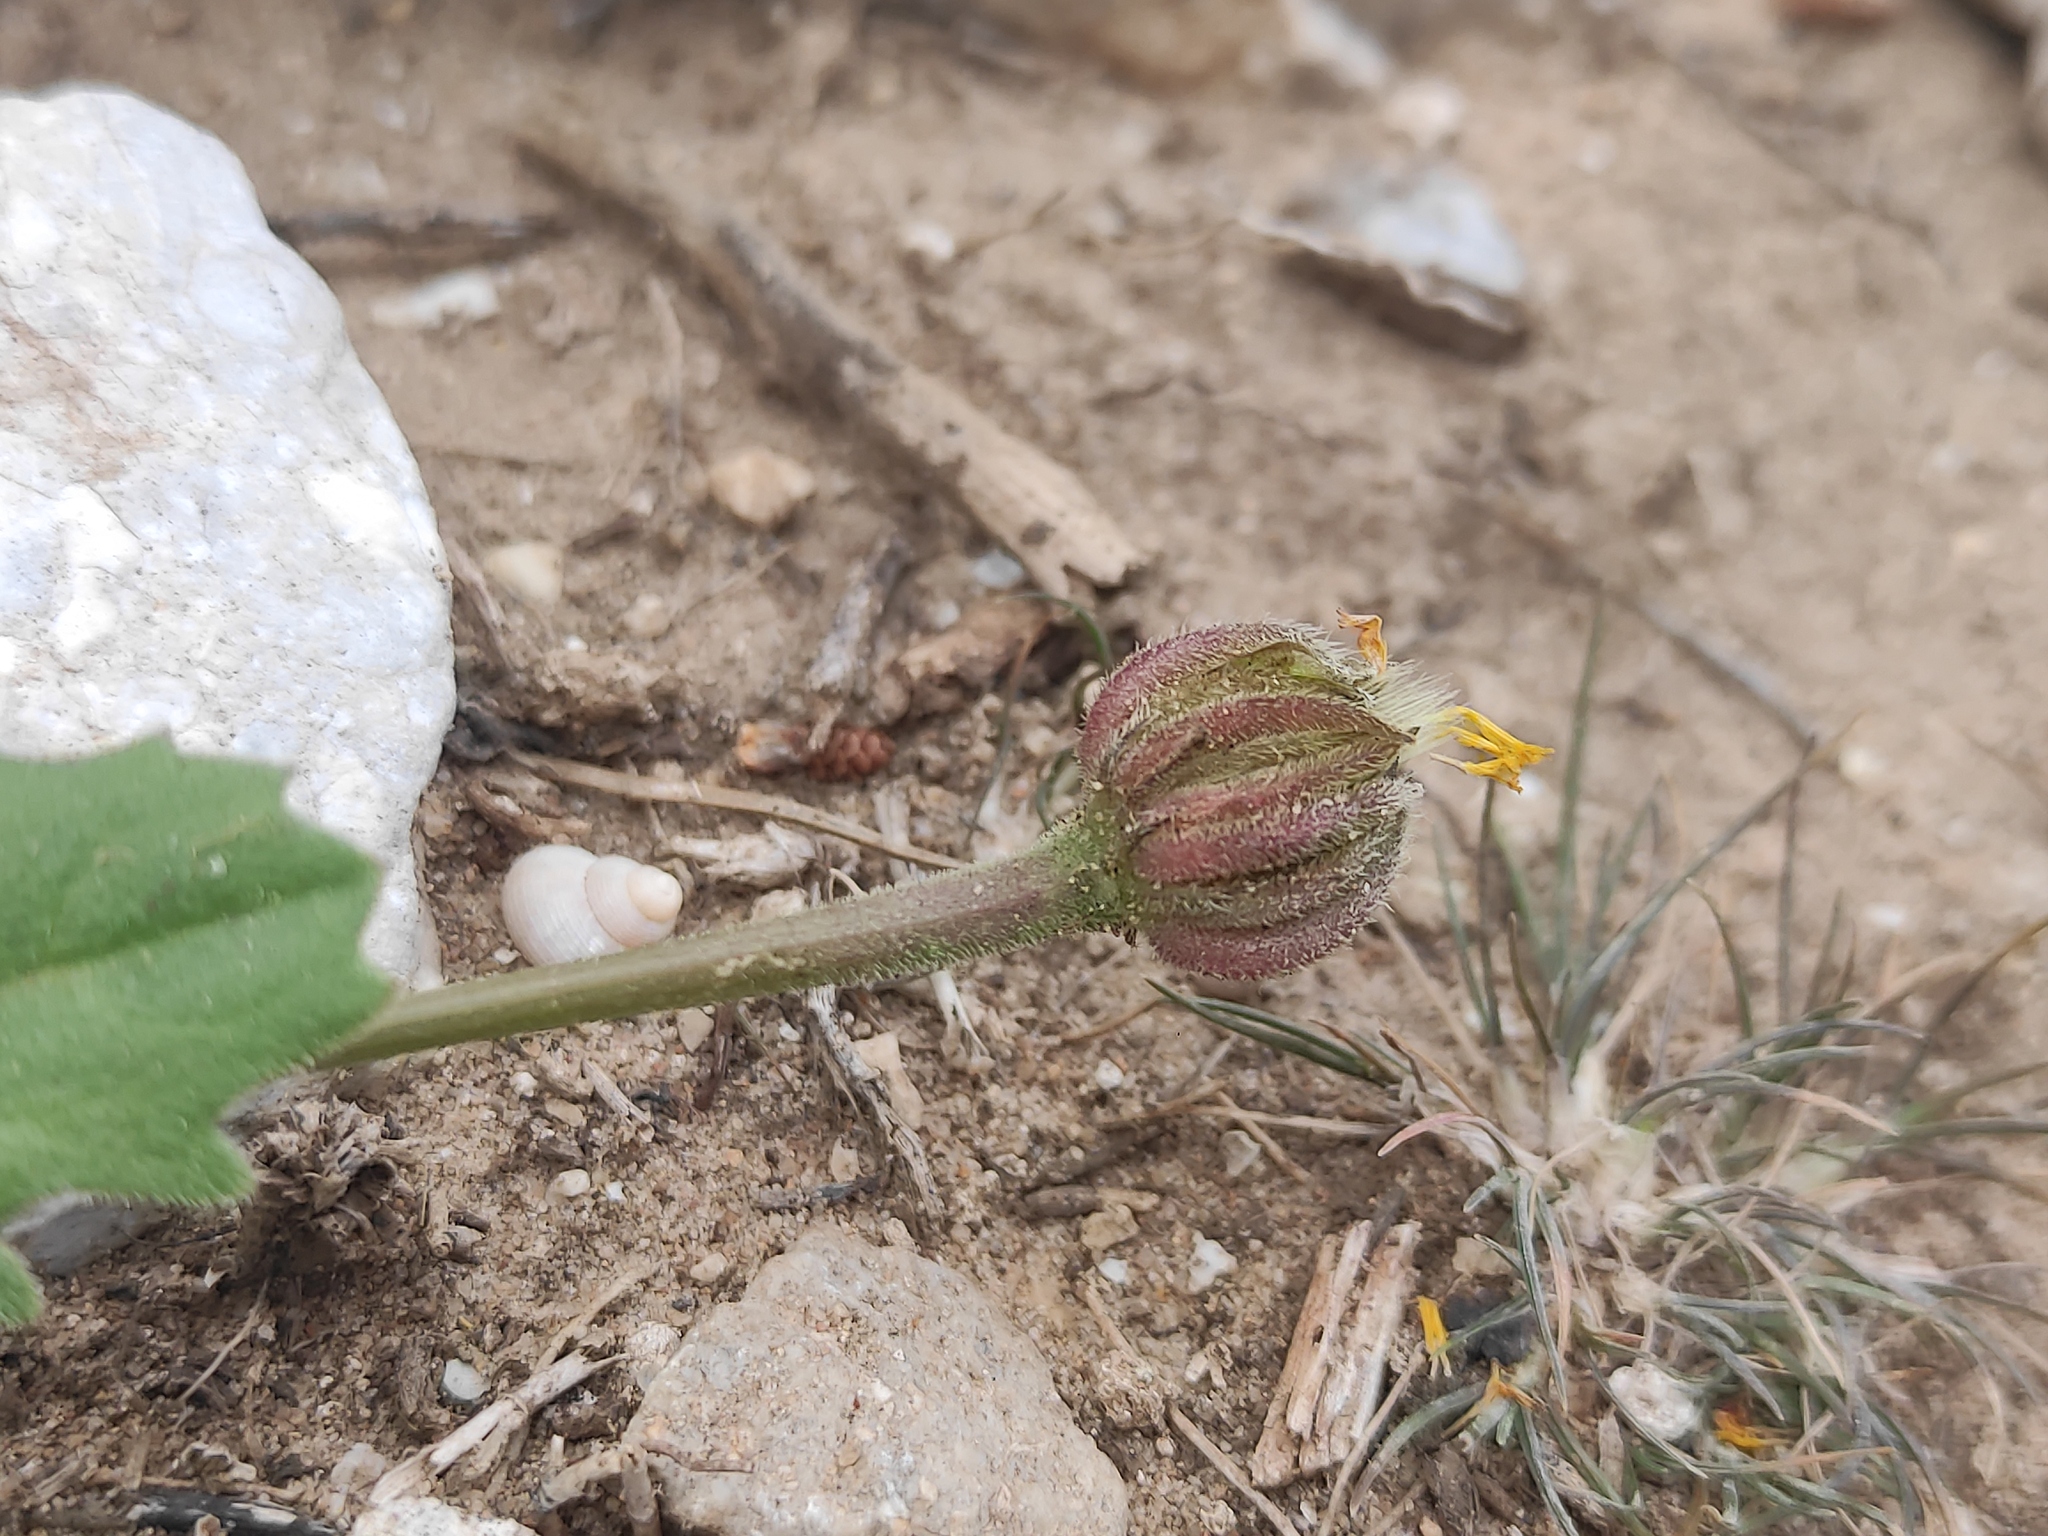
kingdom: Plantae
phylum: Tracheophyta
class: Magnoliopsida
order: Asterales
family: Asteraceae
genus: Hedypnois
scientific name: Hedypnois rhagadioloides
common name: Cretan weed
